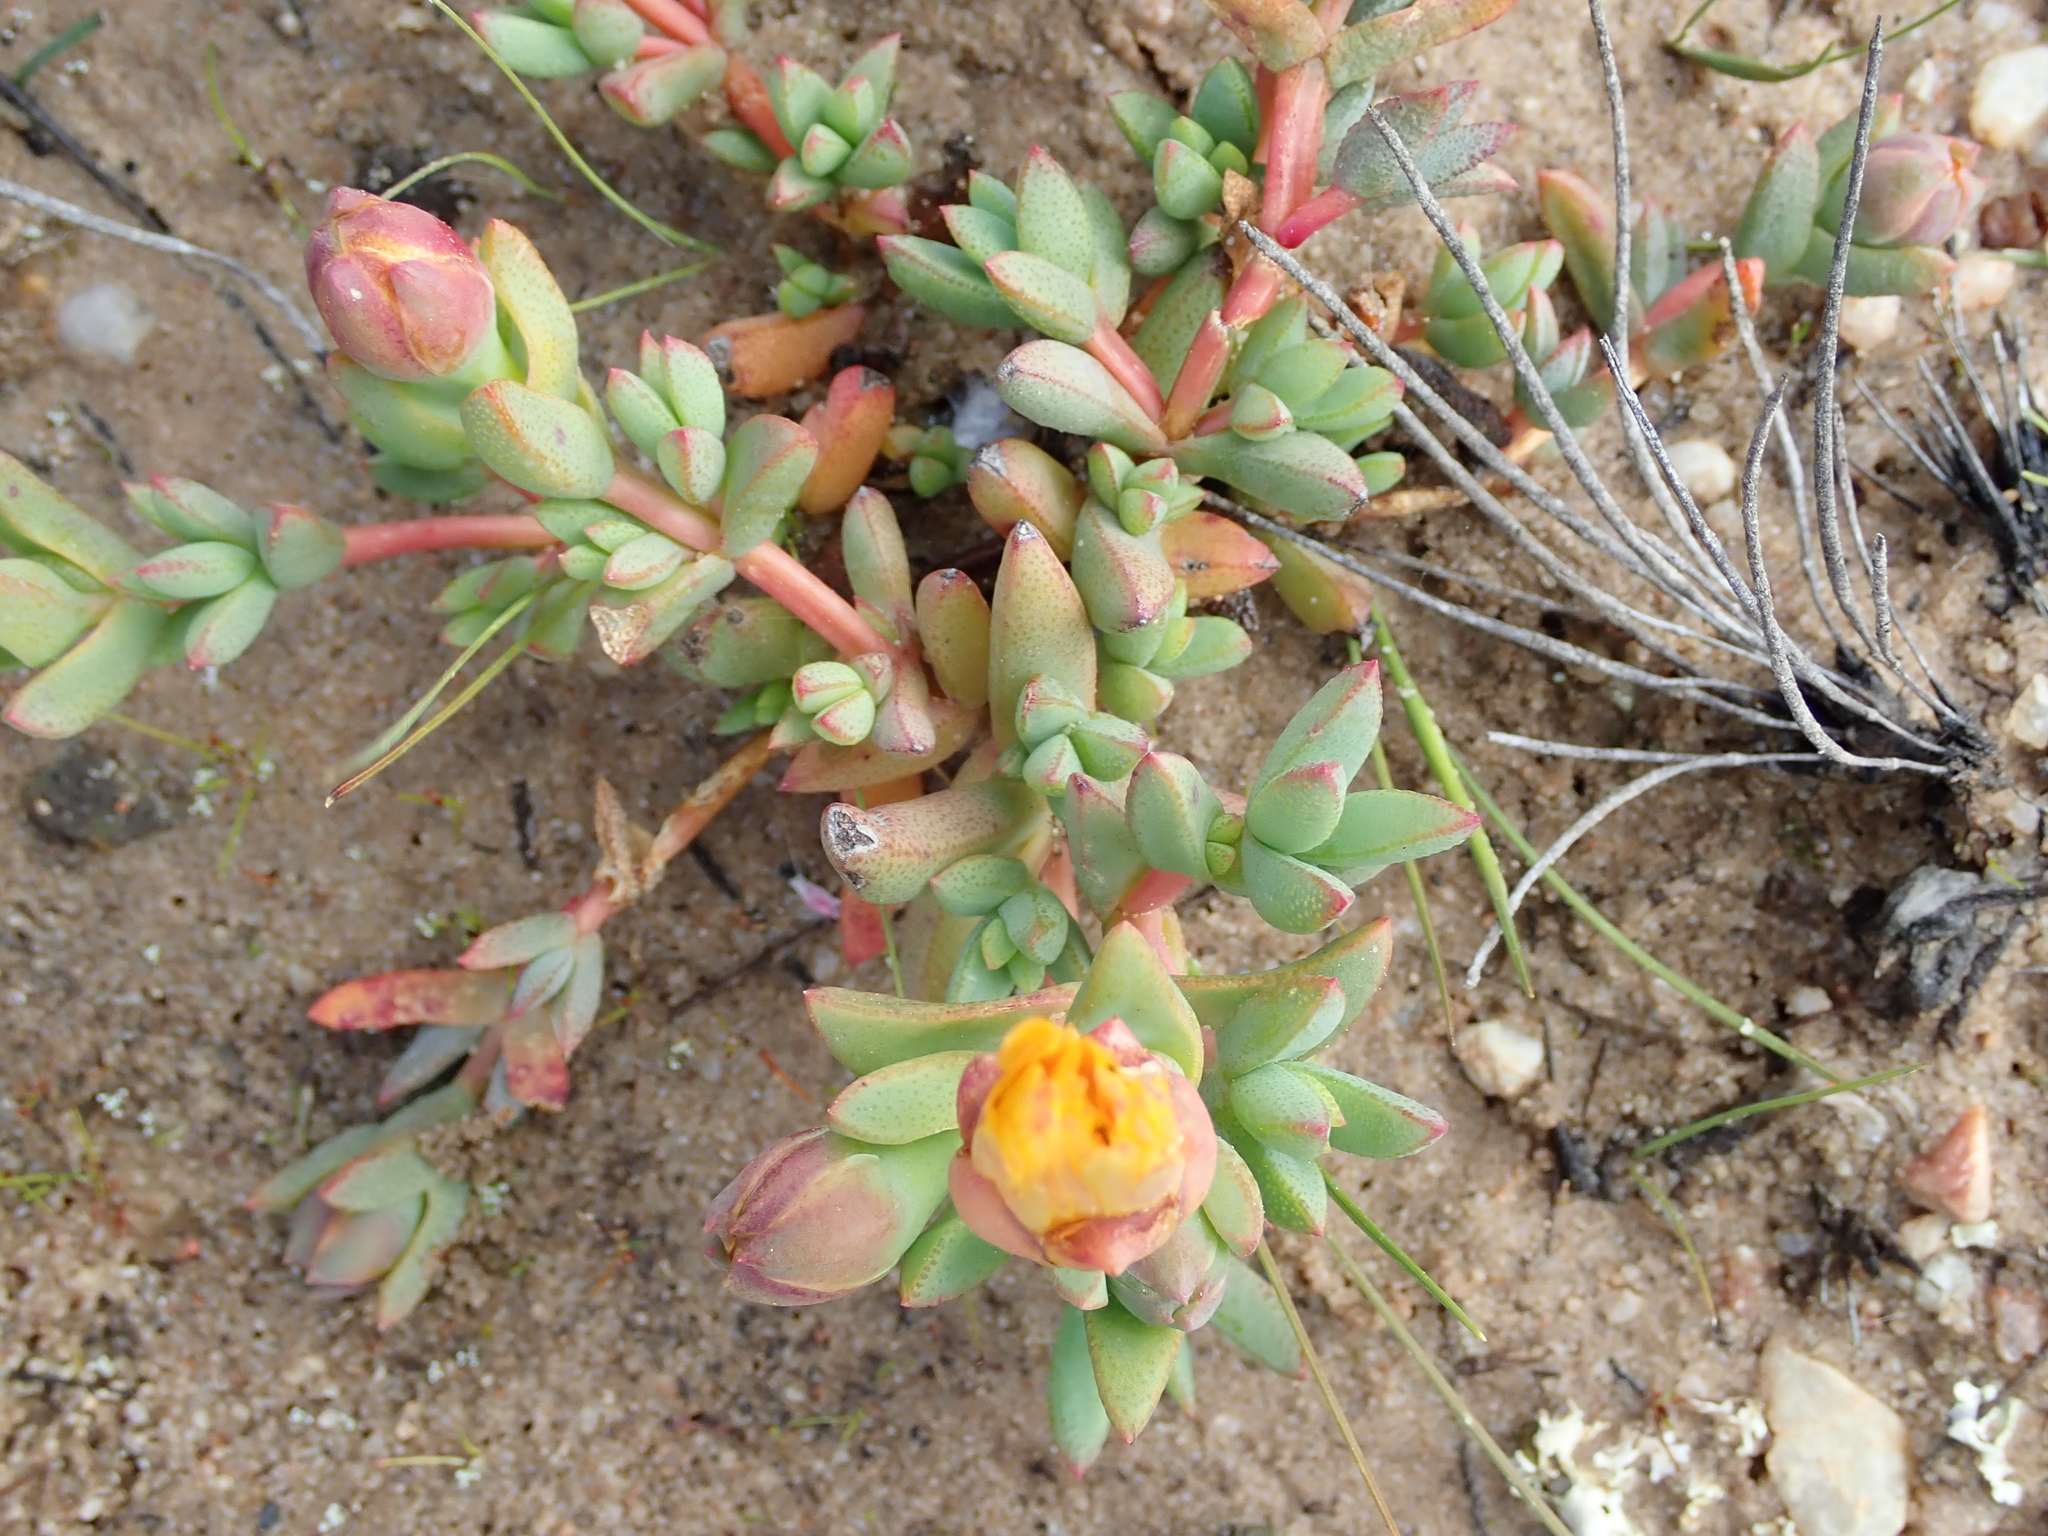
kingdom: Plantae
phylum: Tracheophyta
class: Magnoliopsida
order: Caryophyllales
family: Aizoaceae
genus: Lampranthus
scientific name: Lampranthus glaucus
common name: Noonflower
